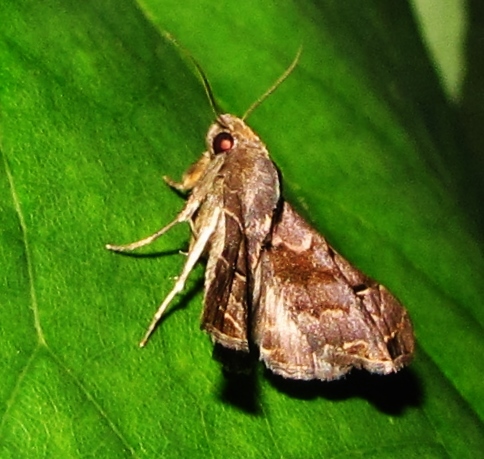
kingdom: Animalia
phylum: Arthropoda
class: Insecta
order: Lepidoptera
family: Erebidae
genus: Palthis
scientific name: Palthis asopialis
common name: Faint-spotted palthis moth
